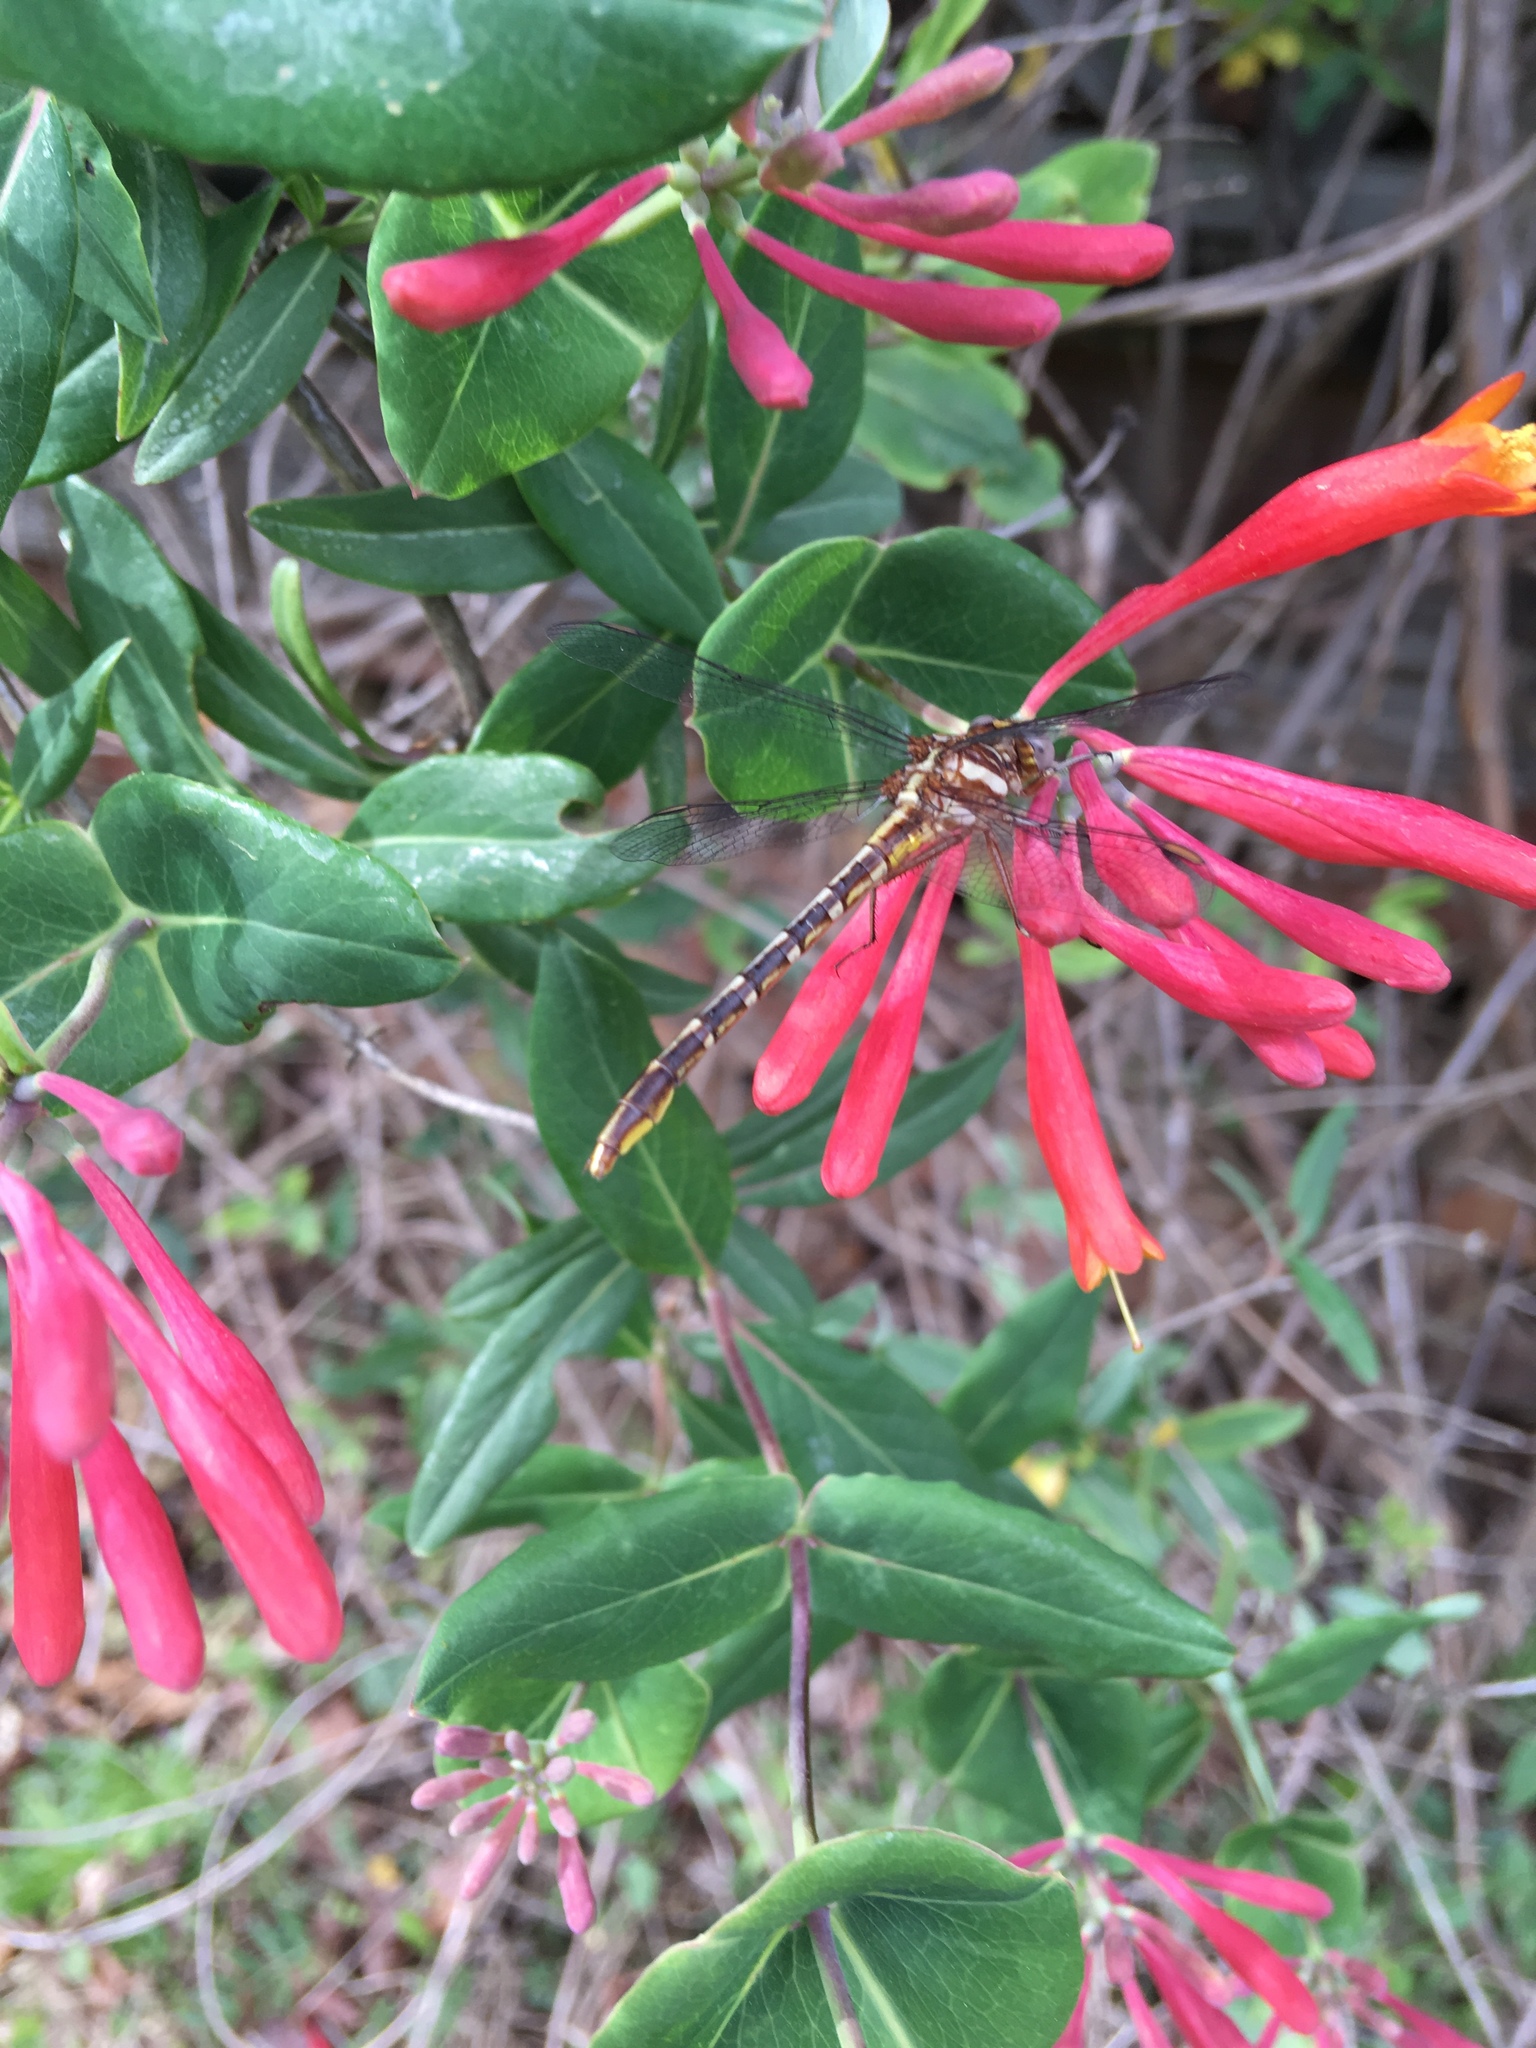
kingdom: Animalia
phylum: Arthropoda
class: Insecta
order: Odonata
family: Gomphidae
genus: Phanogomphus
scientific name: Phanogomphus exilis
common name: Lancet clubtail
